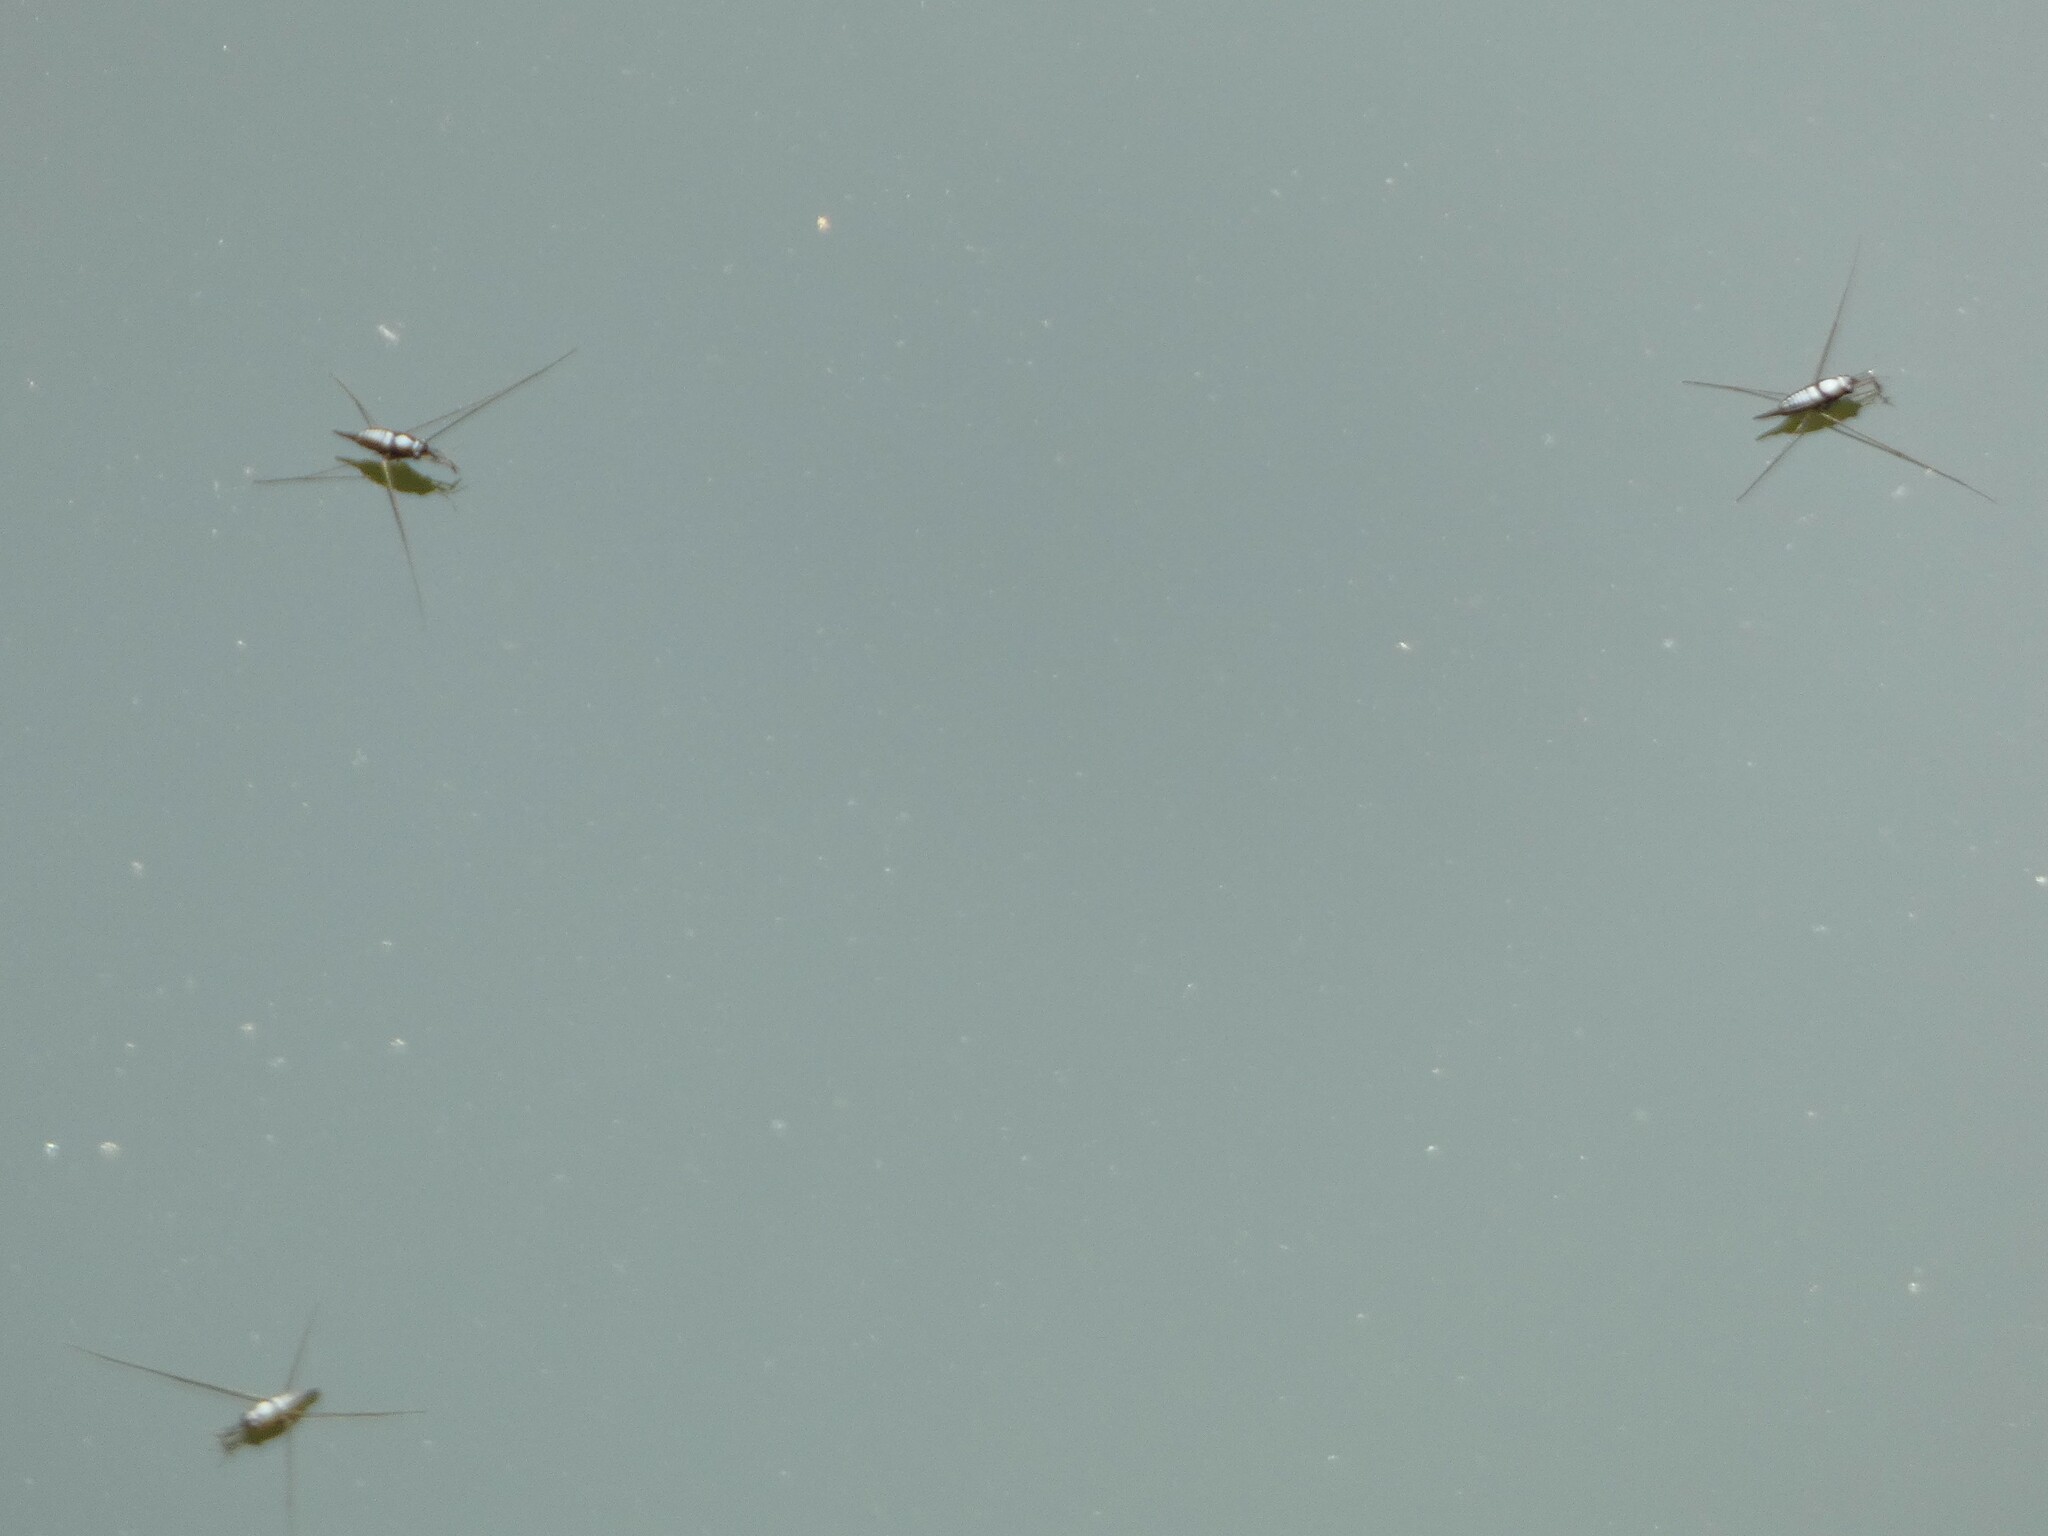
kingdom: Animalia
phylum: Arthropoda
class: Insecta
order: Hemiptera
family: Gerridae
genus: Rhagadotarsus
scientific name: Rhagadotarsus kraepelini
